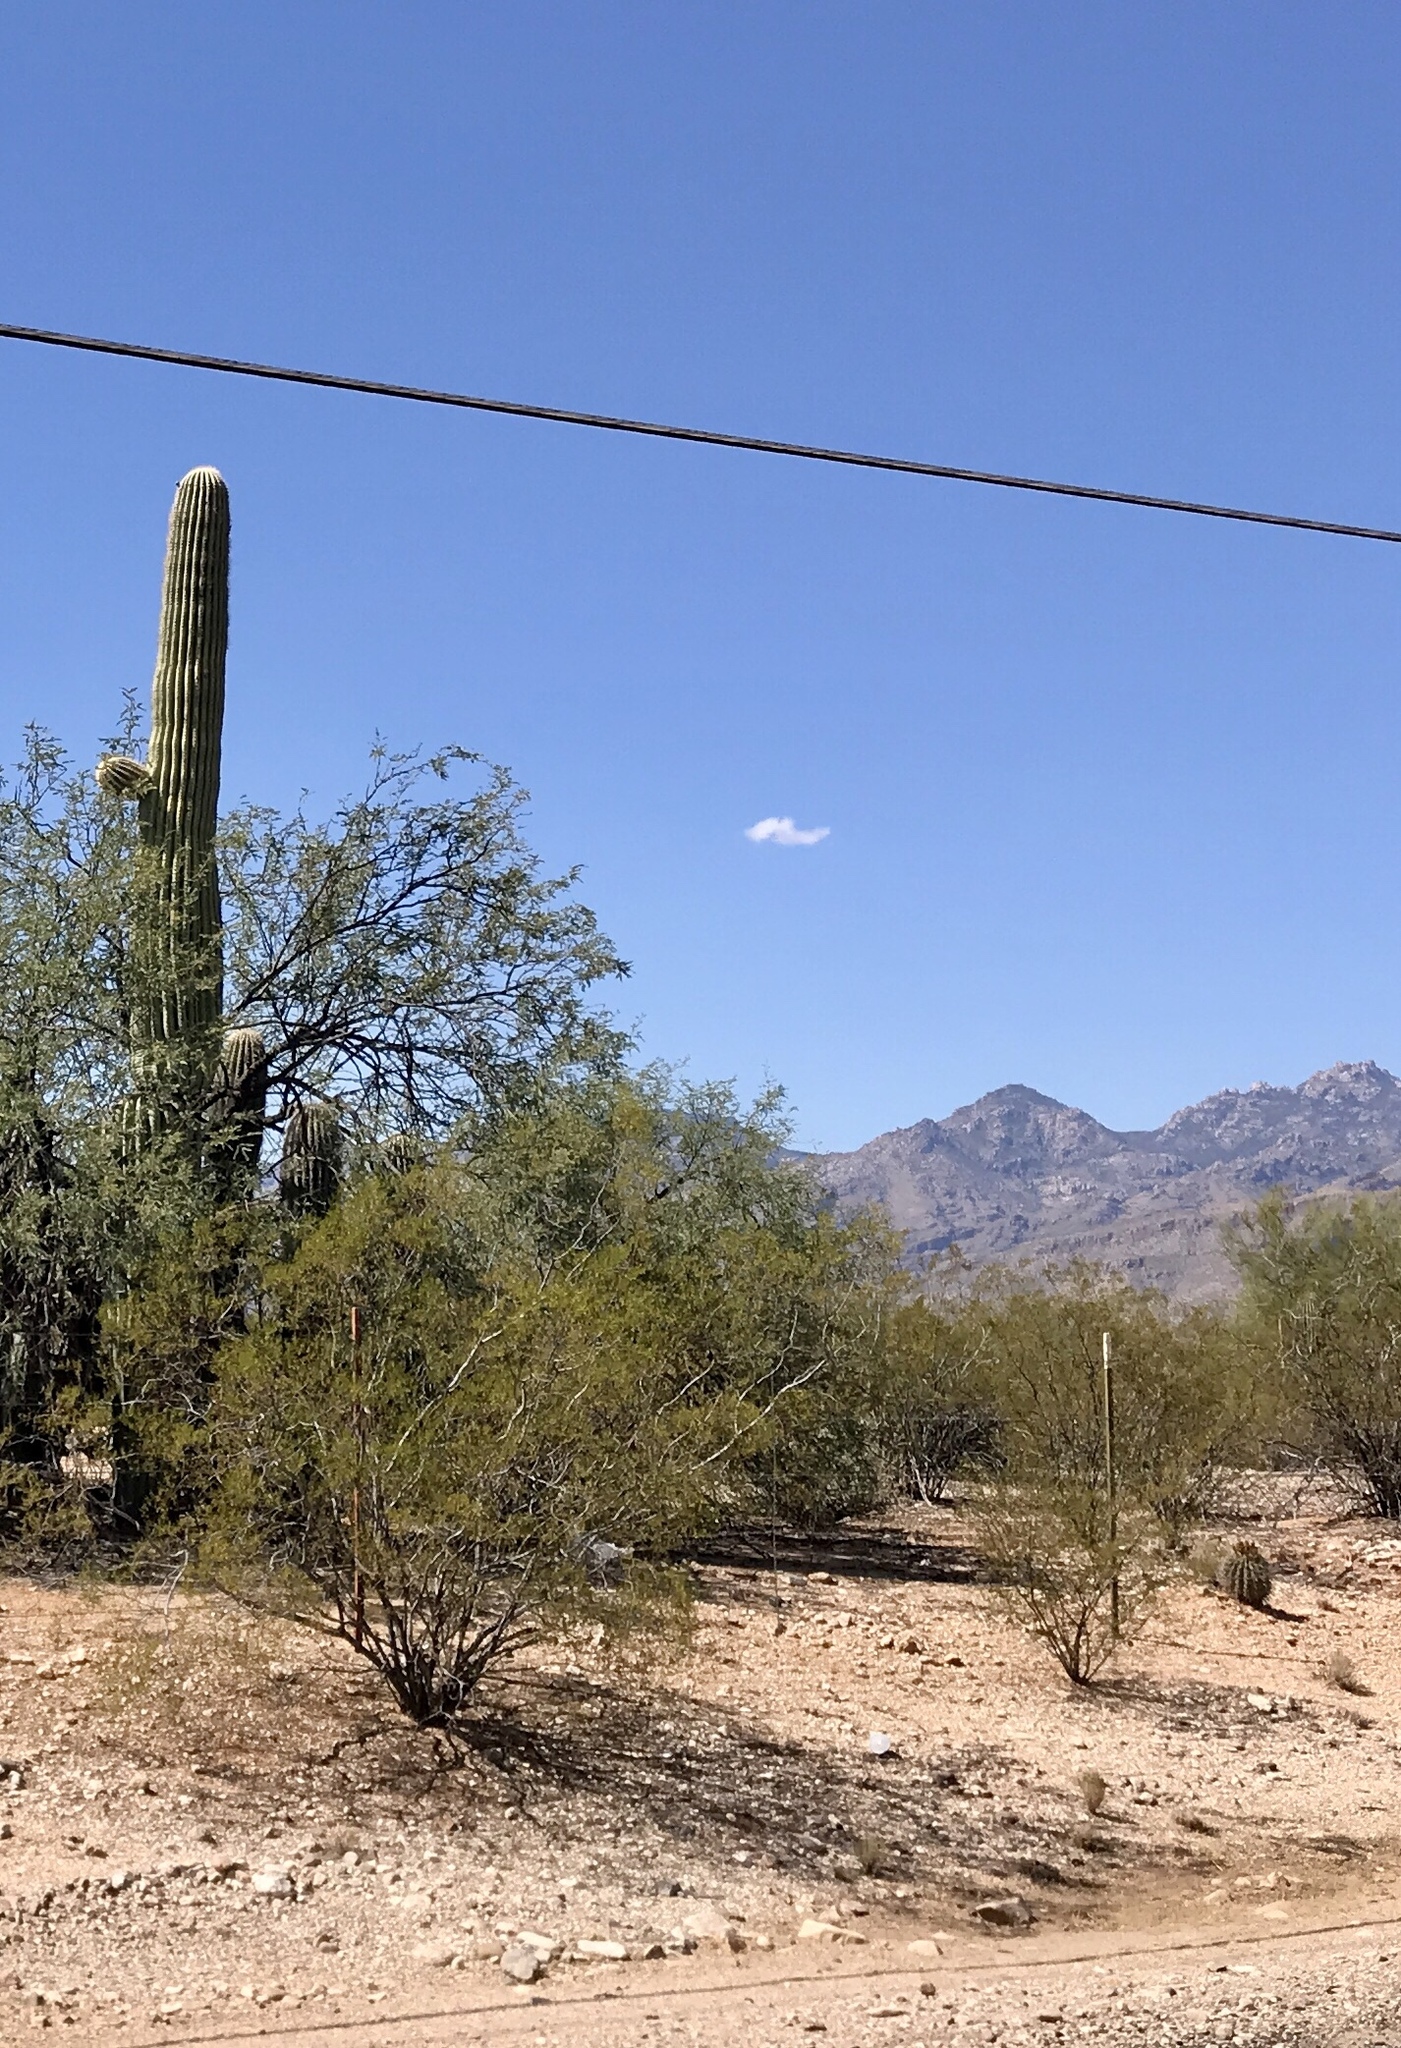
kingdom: Plantae
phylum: Tracheophyta
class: Magnoliopsida
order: Zygophyllales
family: Zygophyllaceae
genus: Larrea
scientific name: Larrea tridentata
